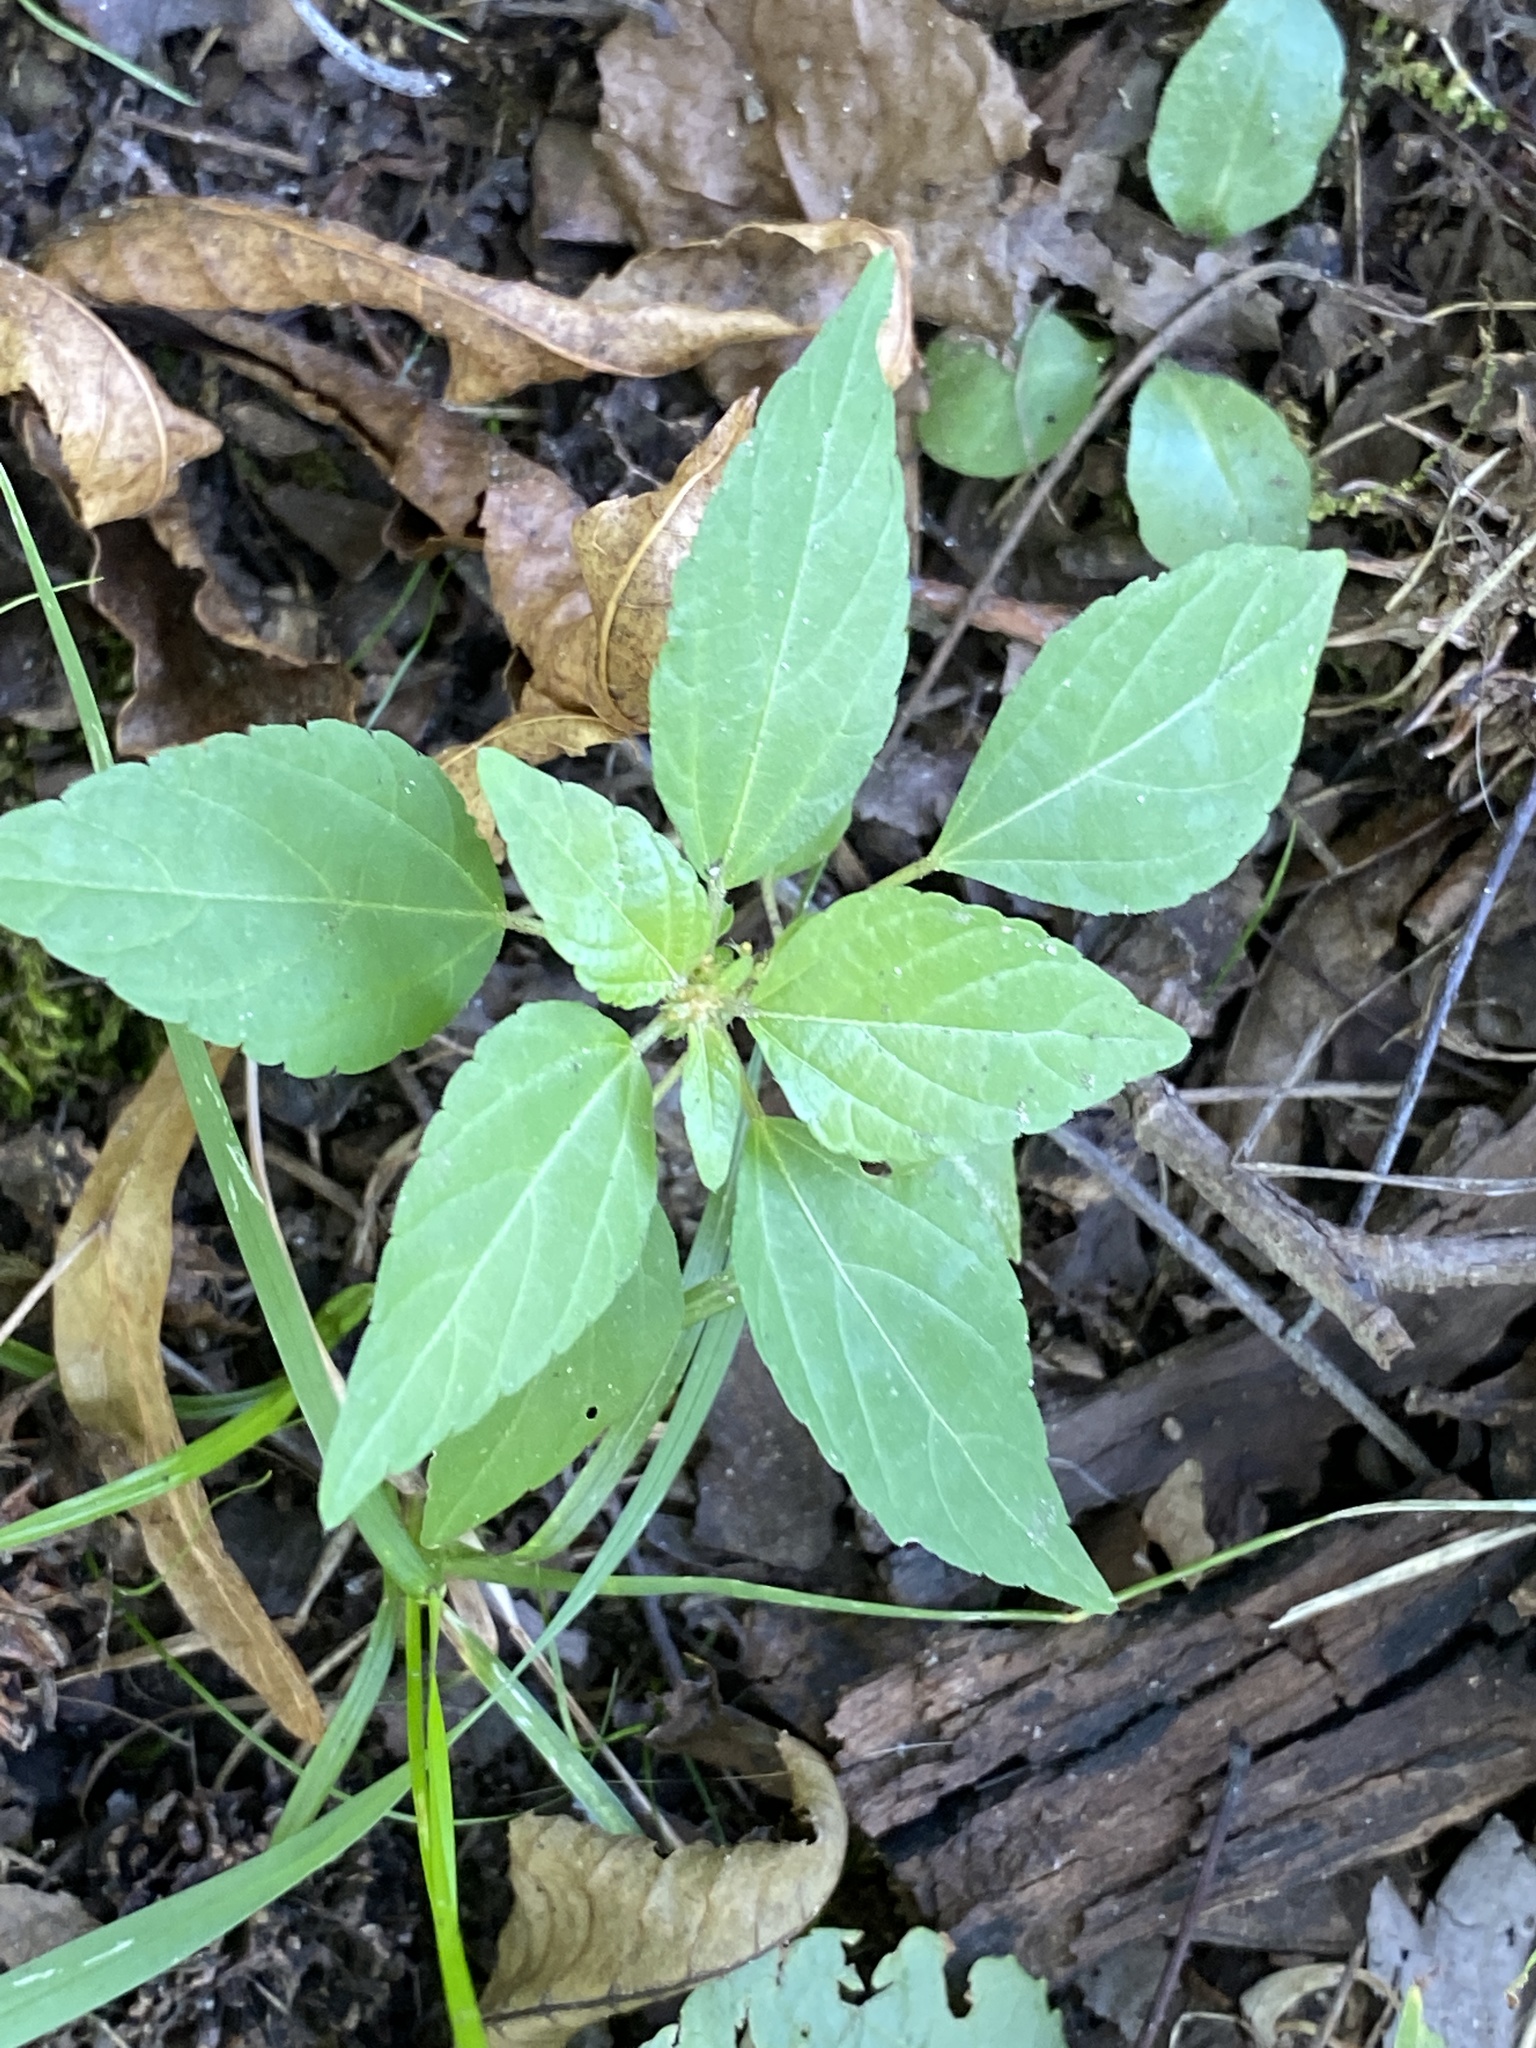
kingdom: Plantae
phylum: Tracheophyta
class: Magnoliopsida
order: Malpighiales
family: Euphorbiaceae
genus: Acalypha
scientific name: Acalypha rhomboidea
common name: Rhombic copperleaf
